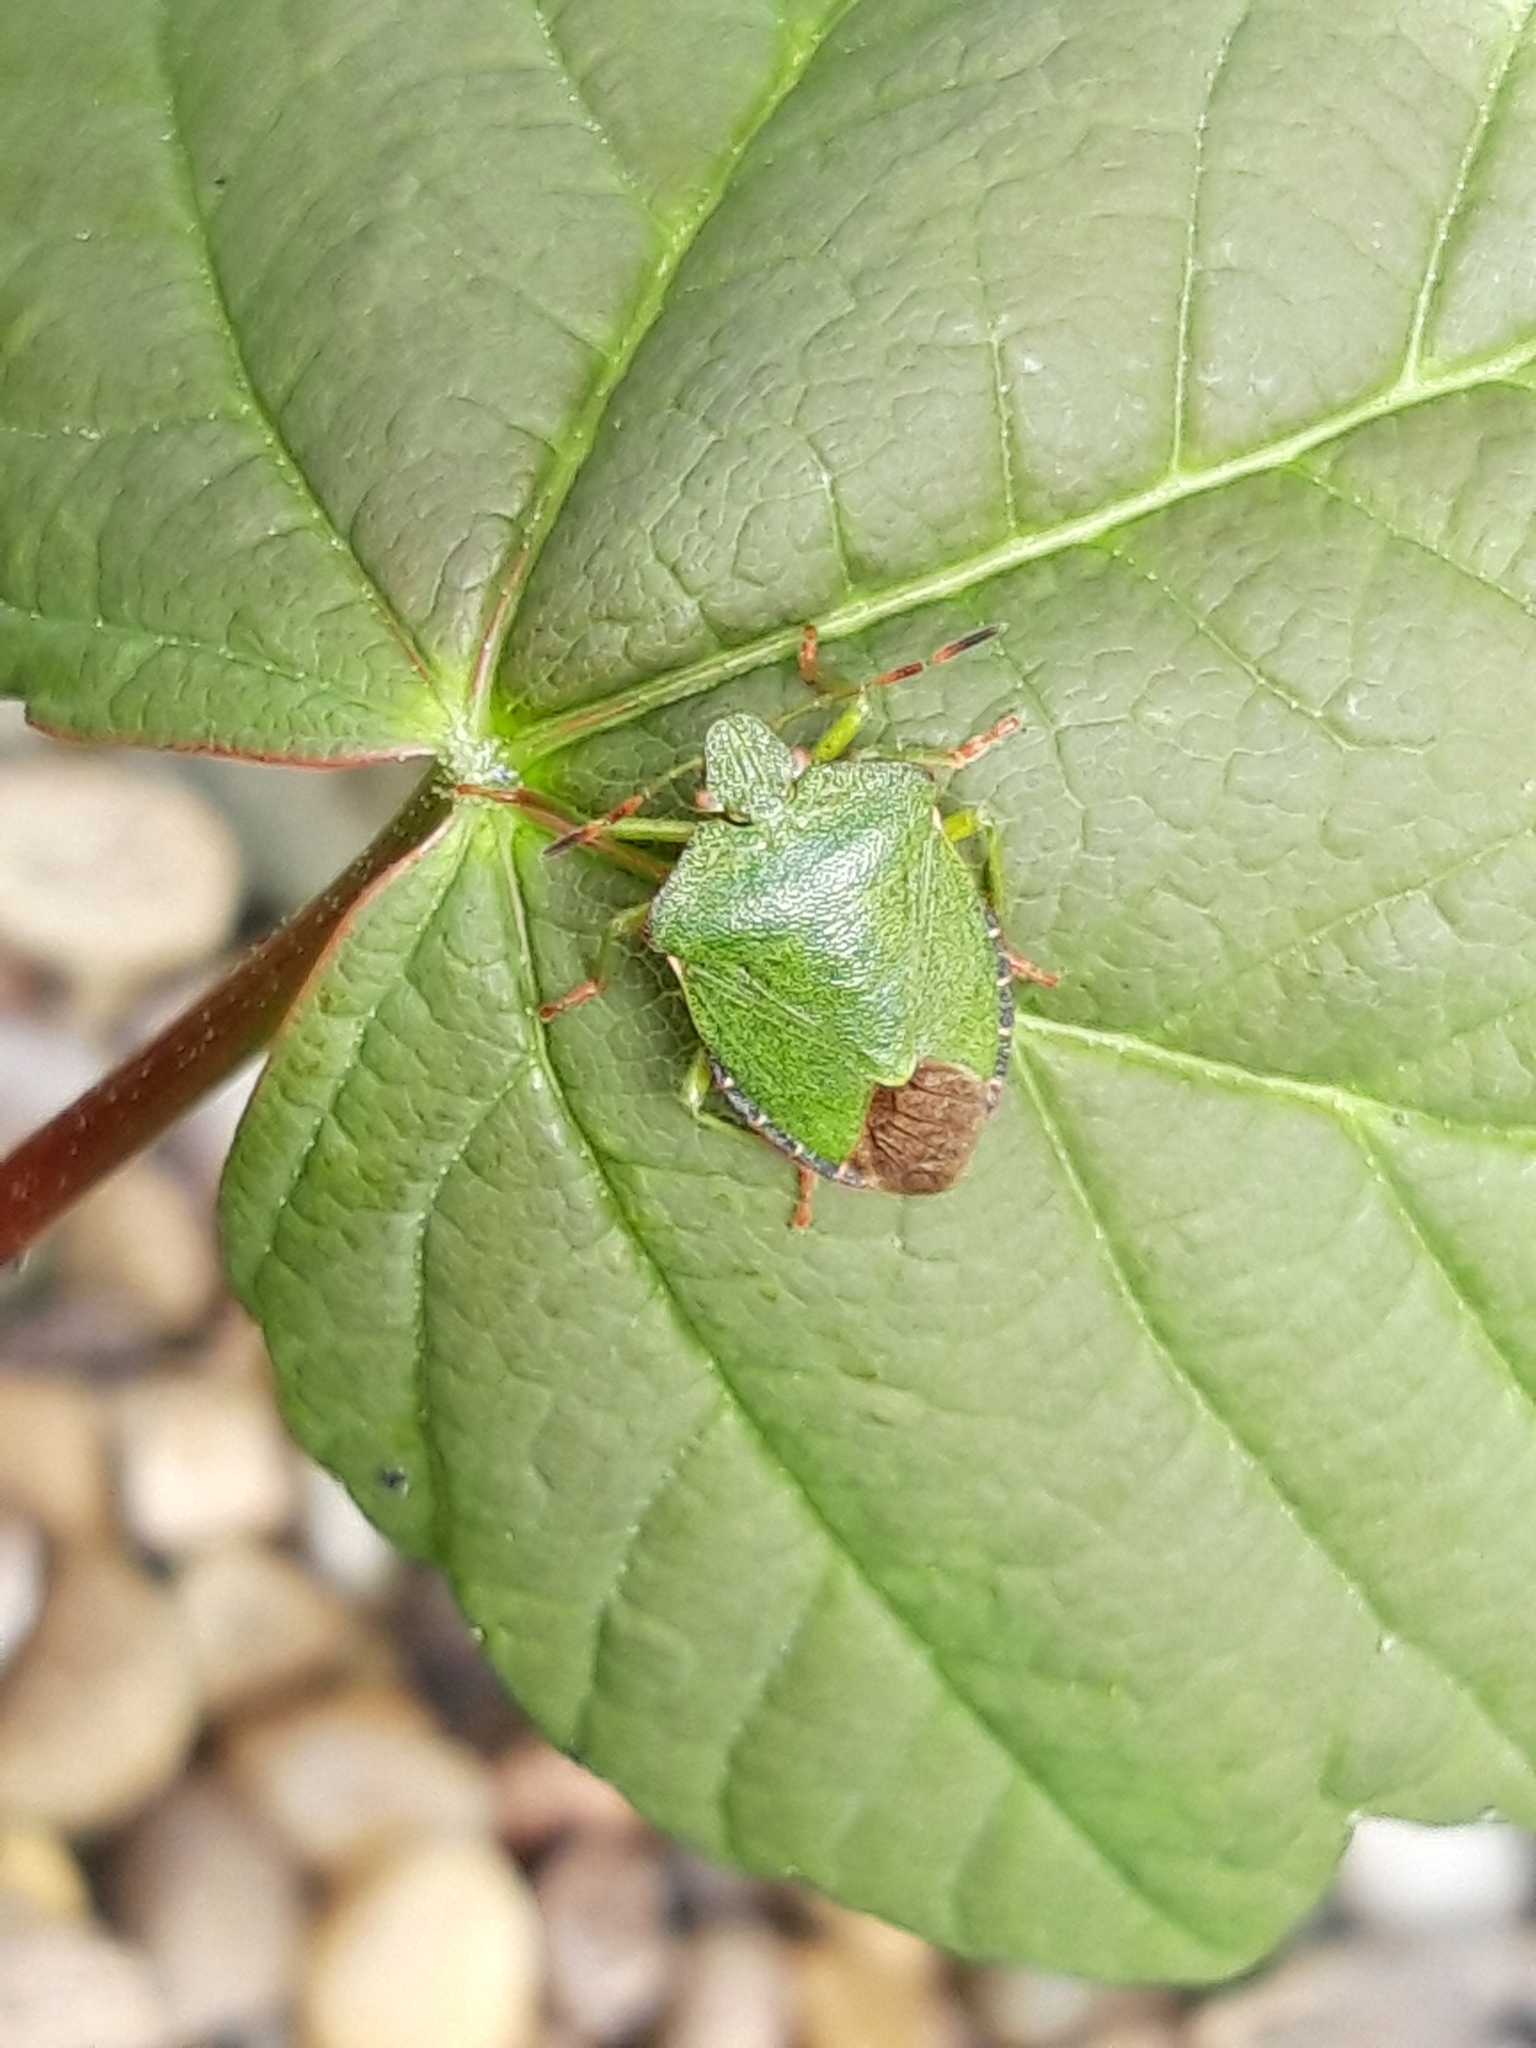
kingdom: Animalia
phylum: Arthropoda
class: Insecta
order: Hemiptera
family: Pentatomidae
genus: Palomena
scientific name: Palomena prasina
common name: Green shieldbug
